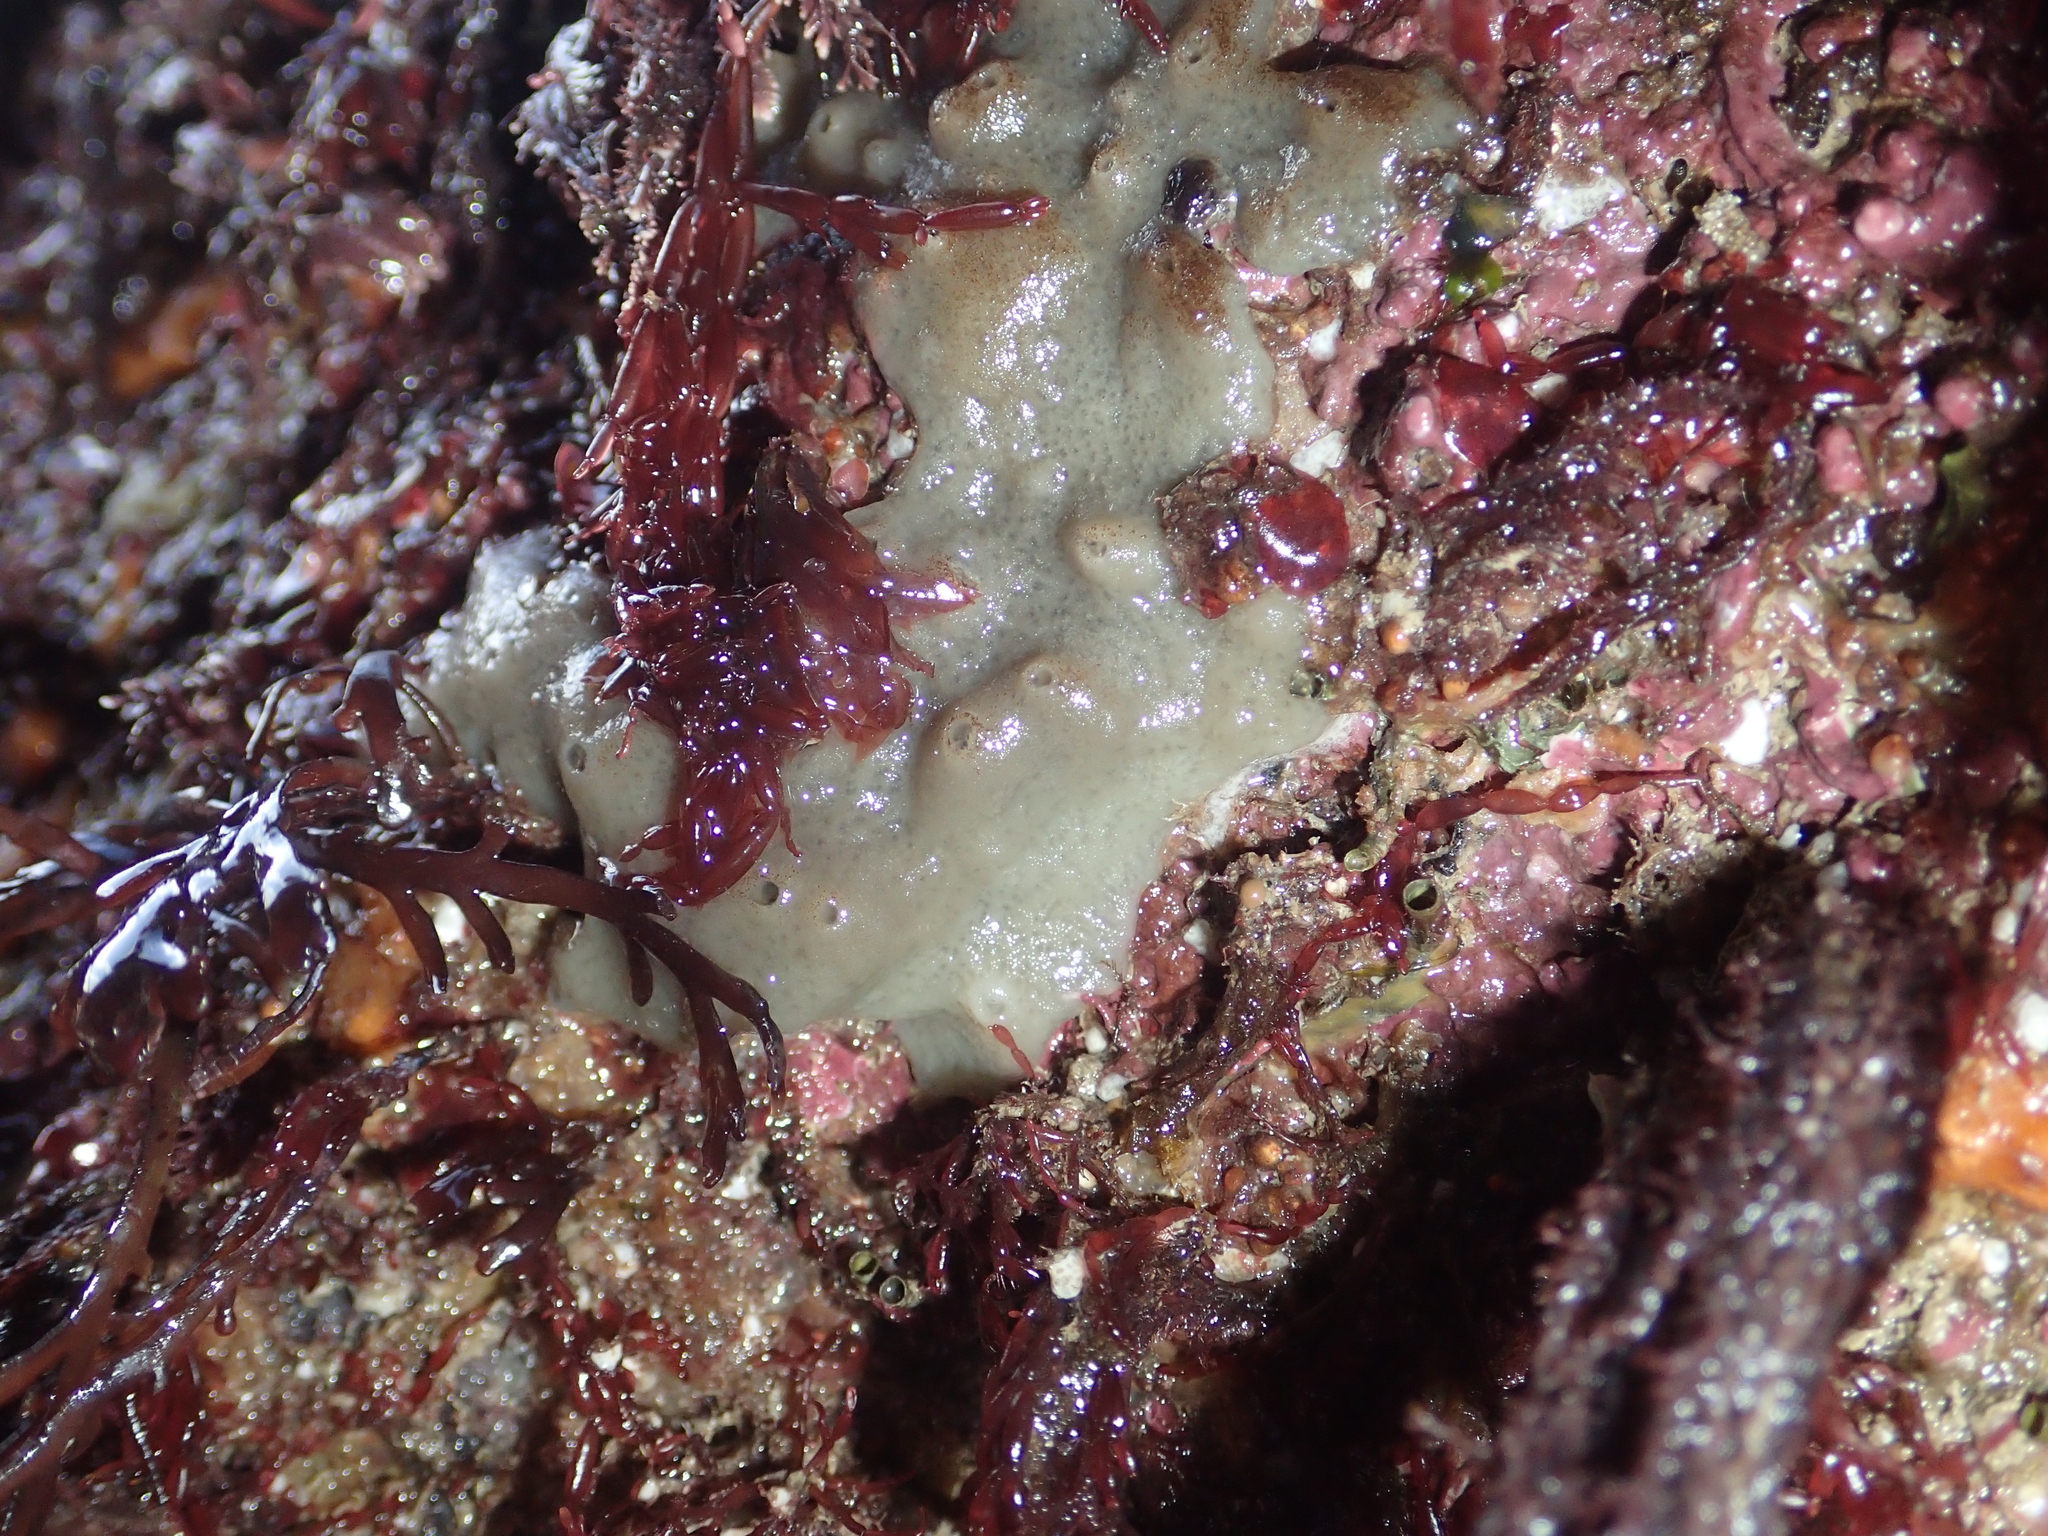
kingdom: Animalia
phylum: Porifera
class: Demospongiae
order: Suberitida
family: Halichondriidae
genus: Halichondria
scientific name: Halichondria panicea
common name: Breadcrumb sponge
